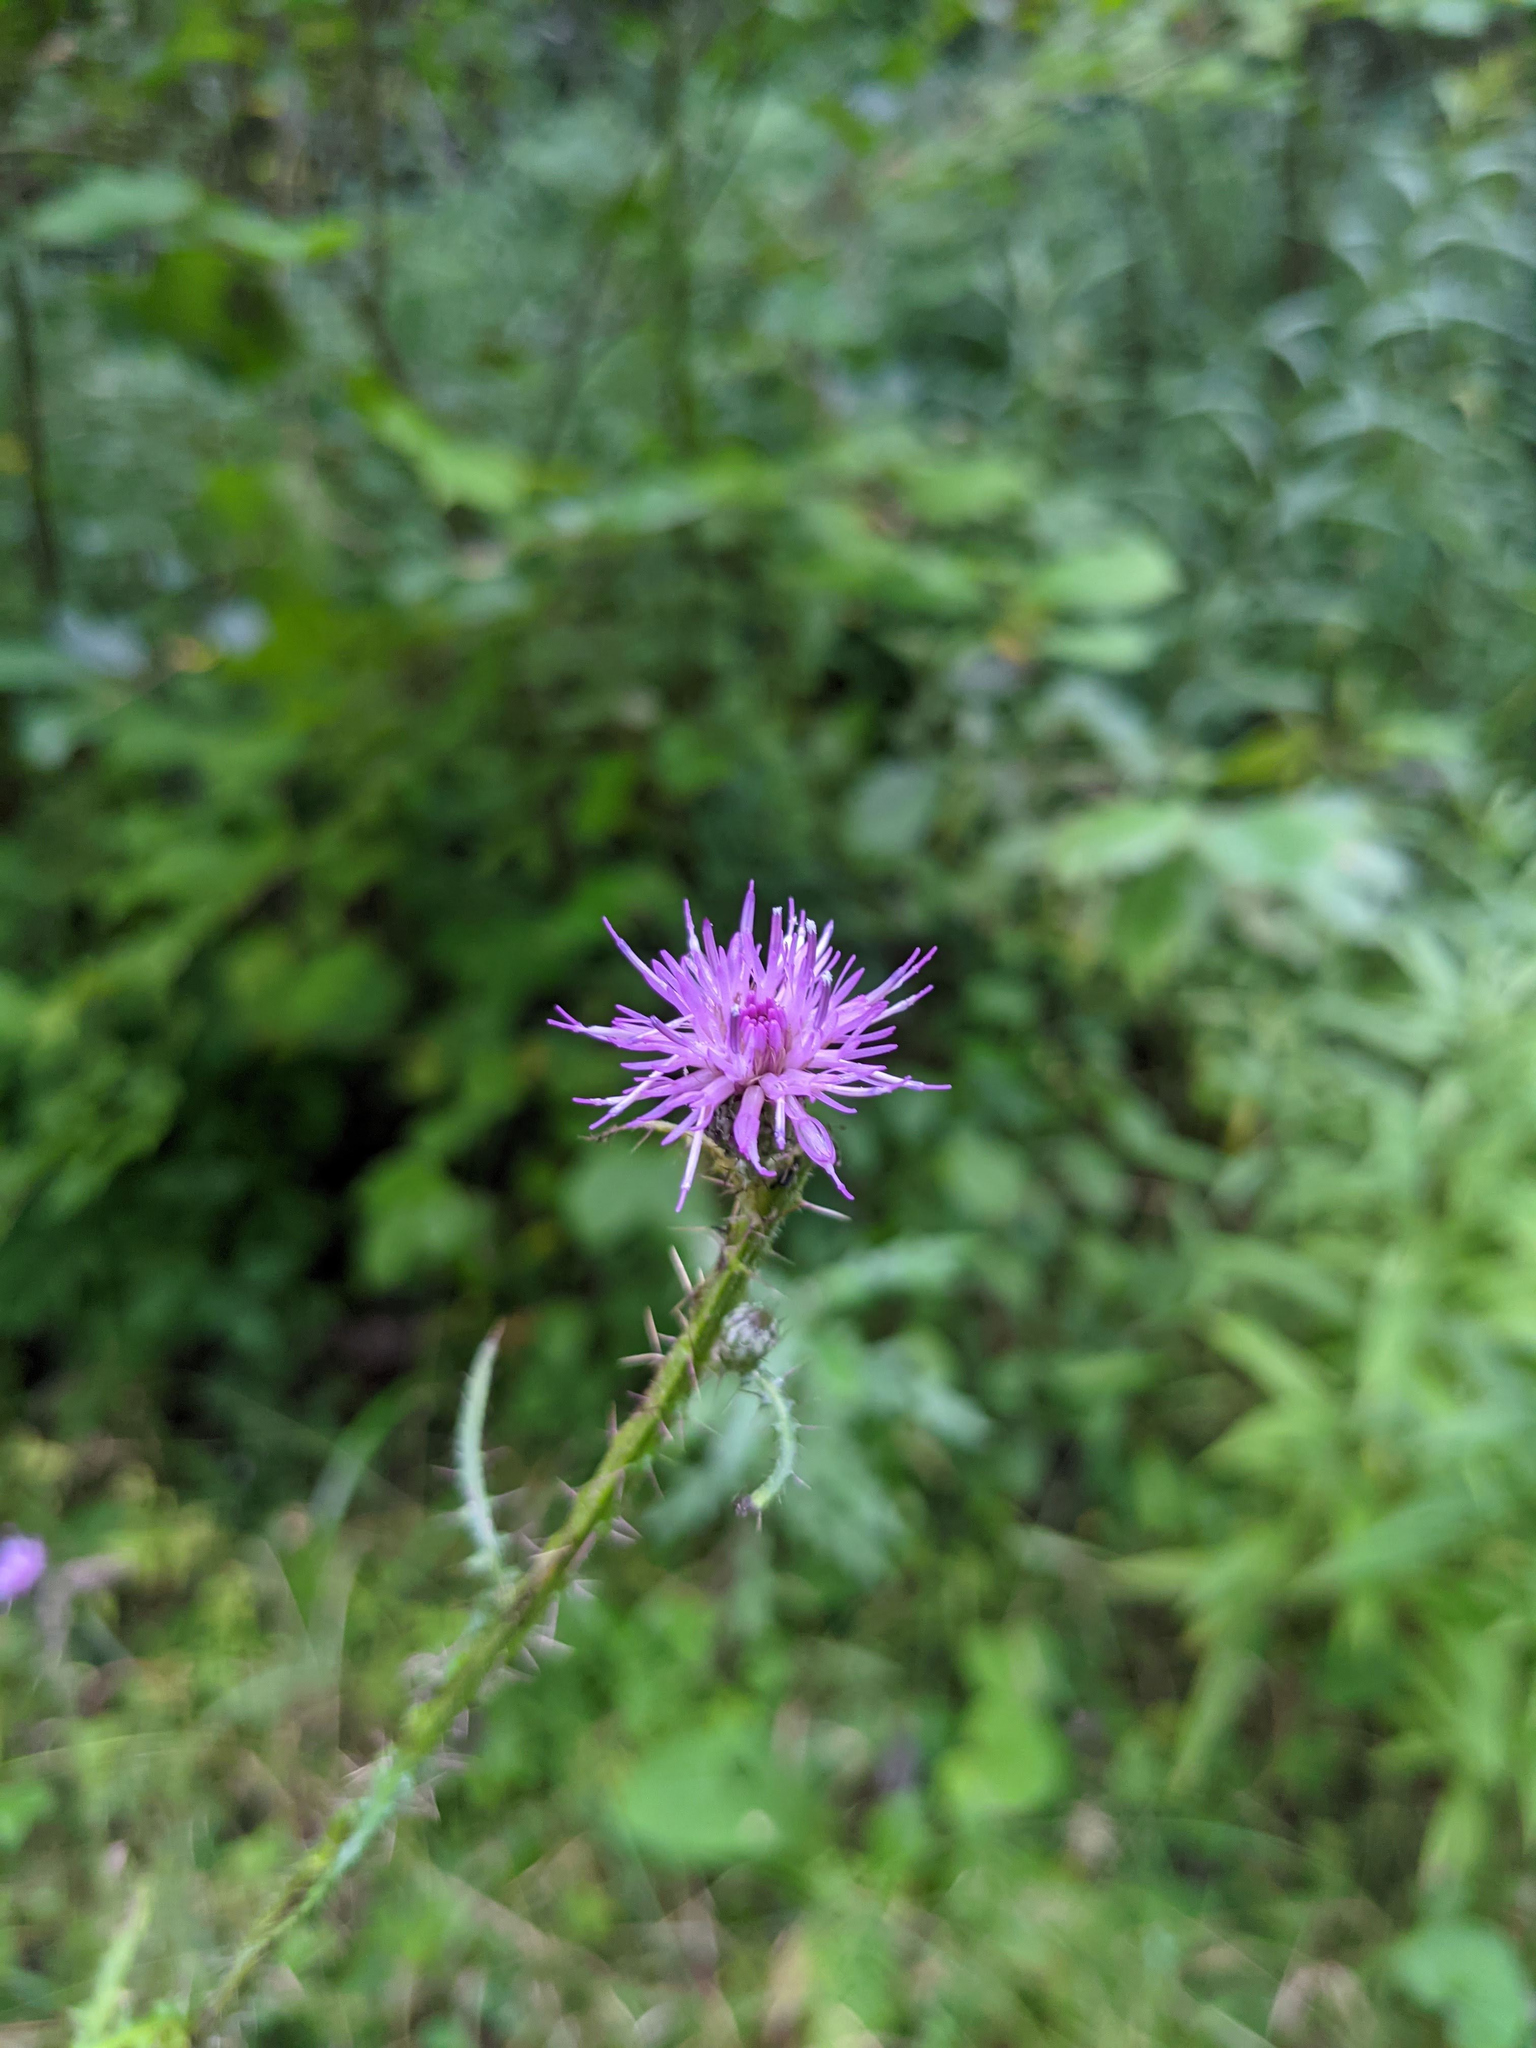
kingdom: Plantae
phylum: Tracheophyta
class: Magnoliopsida
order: Asterales
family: Asteraceae
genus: Cirsium
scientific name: Cirsium palustre
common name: Marsh thistle
